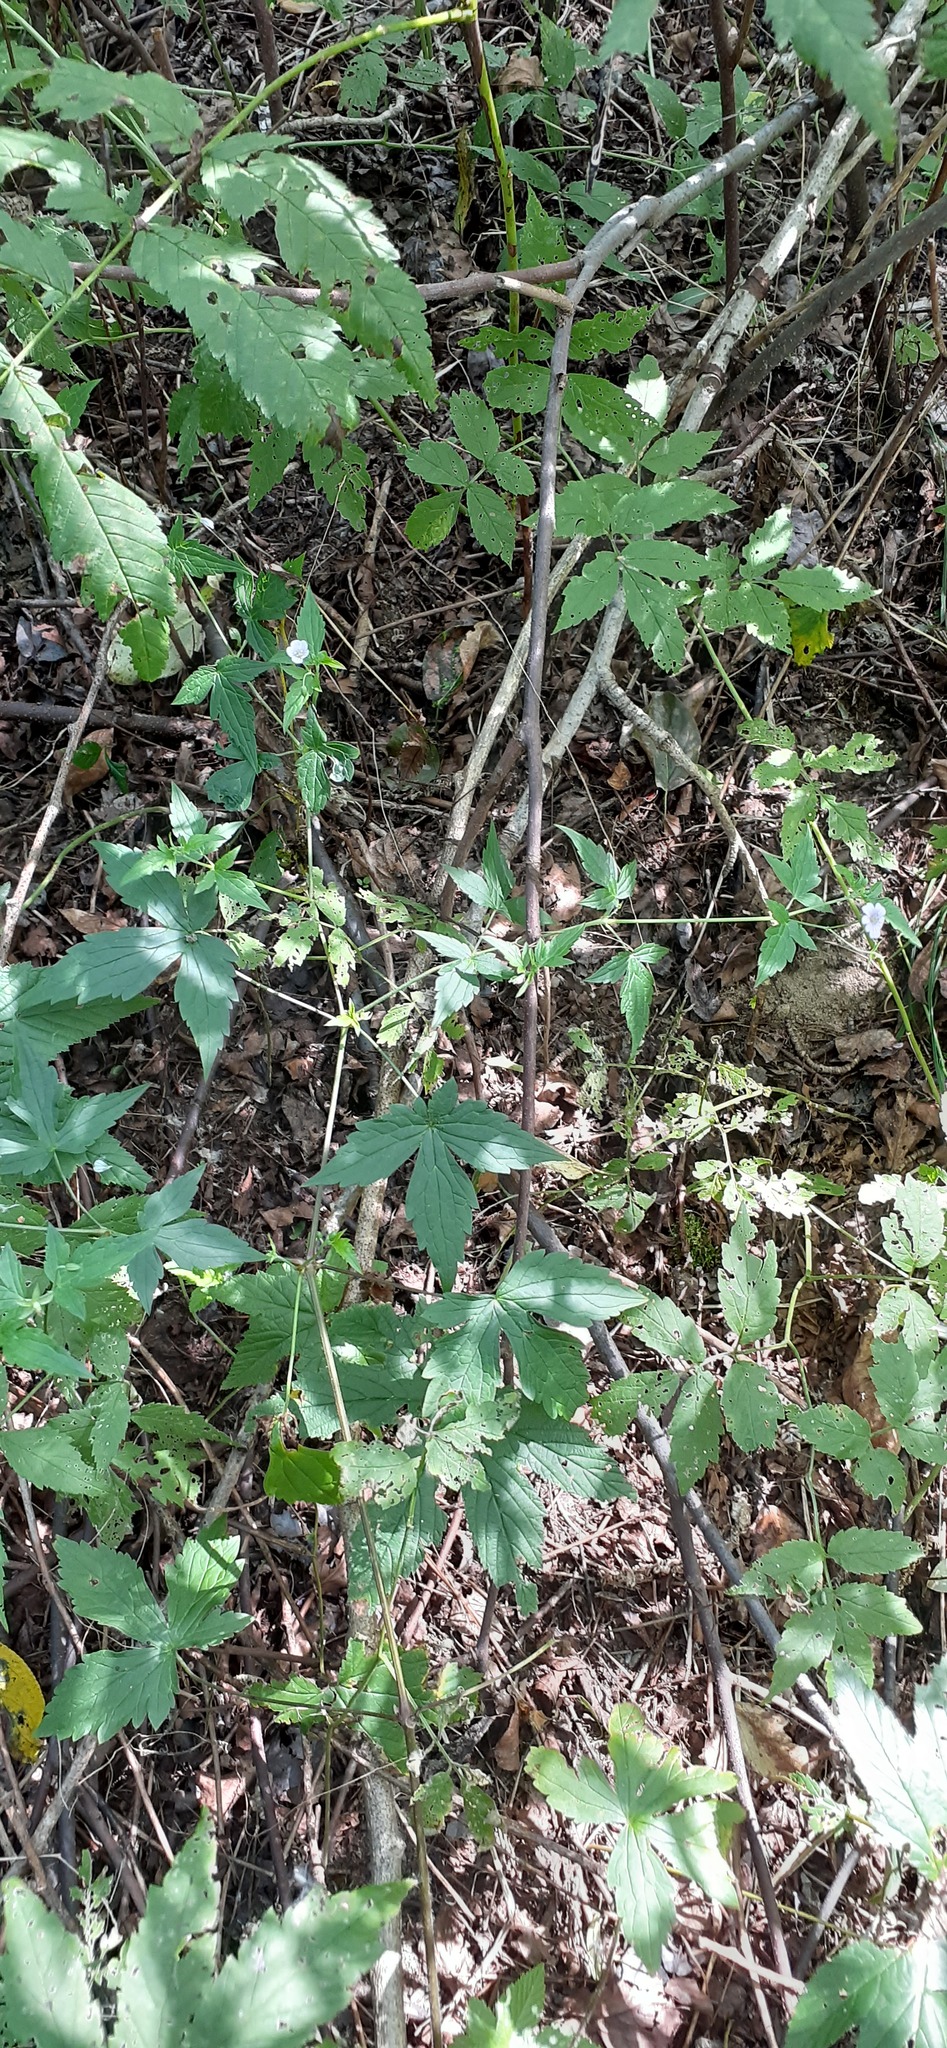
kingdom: Plantae
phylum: Tracheophyta
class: Magnoliopsida
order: Geraniales
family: Geraniaceae
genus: Geranium
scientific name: Geranium wilfordii
